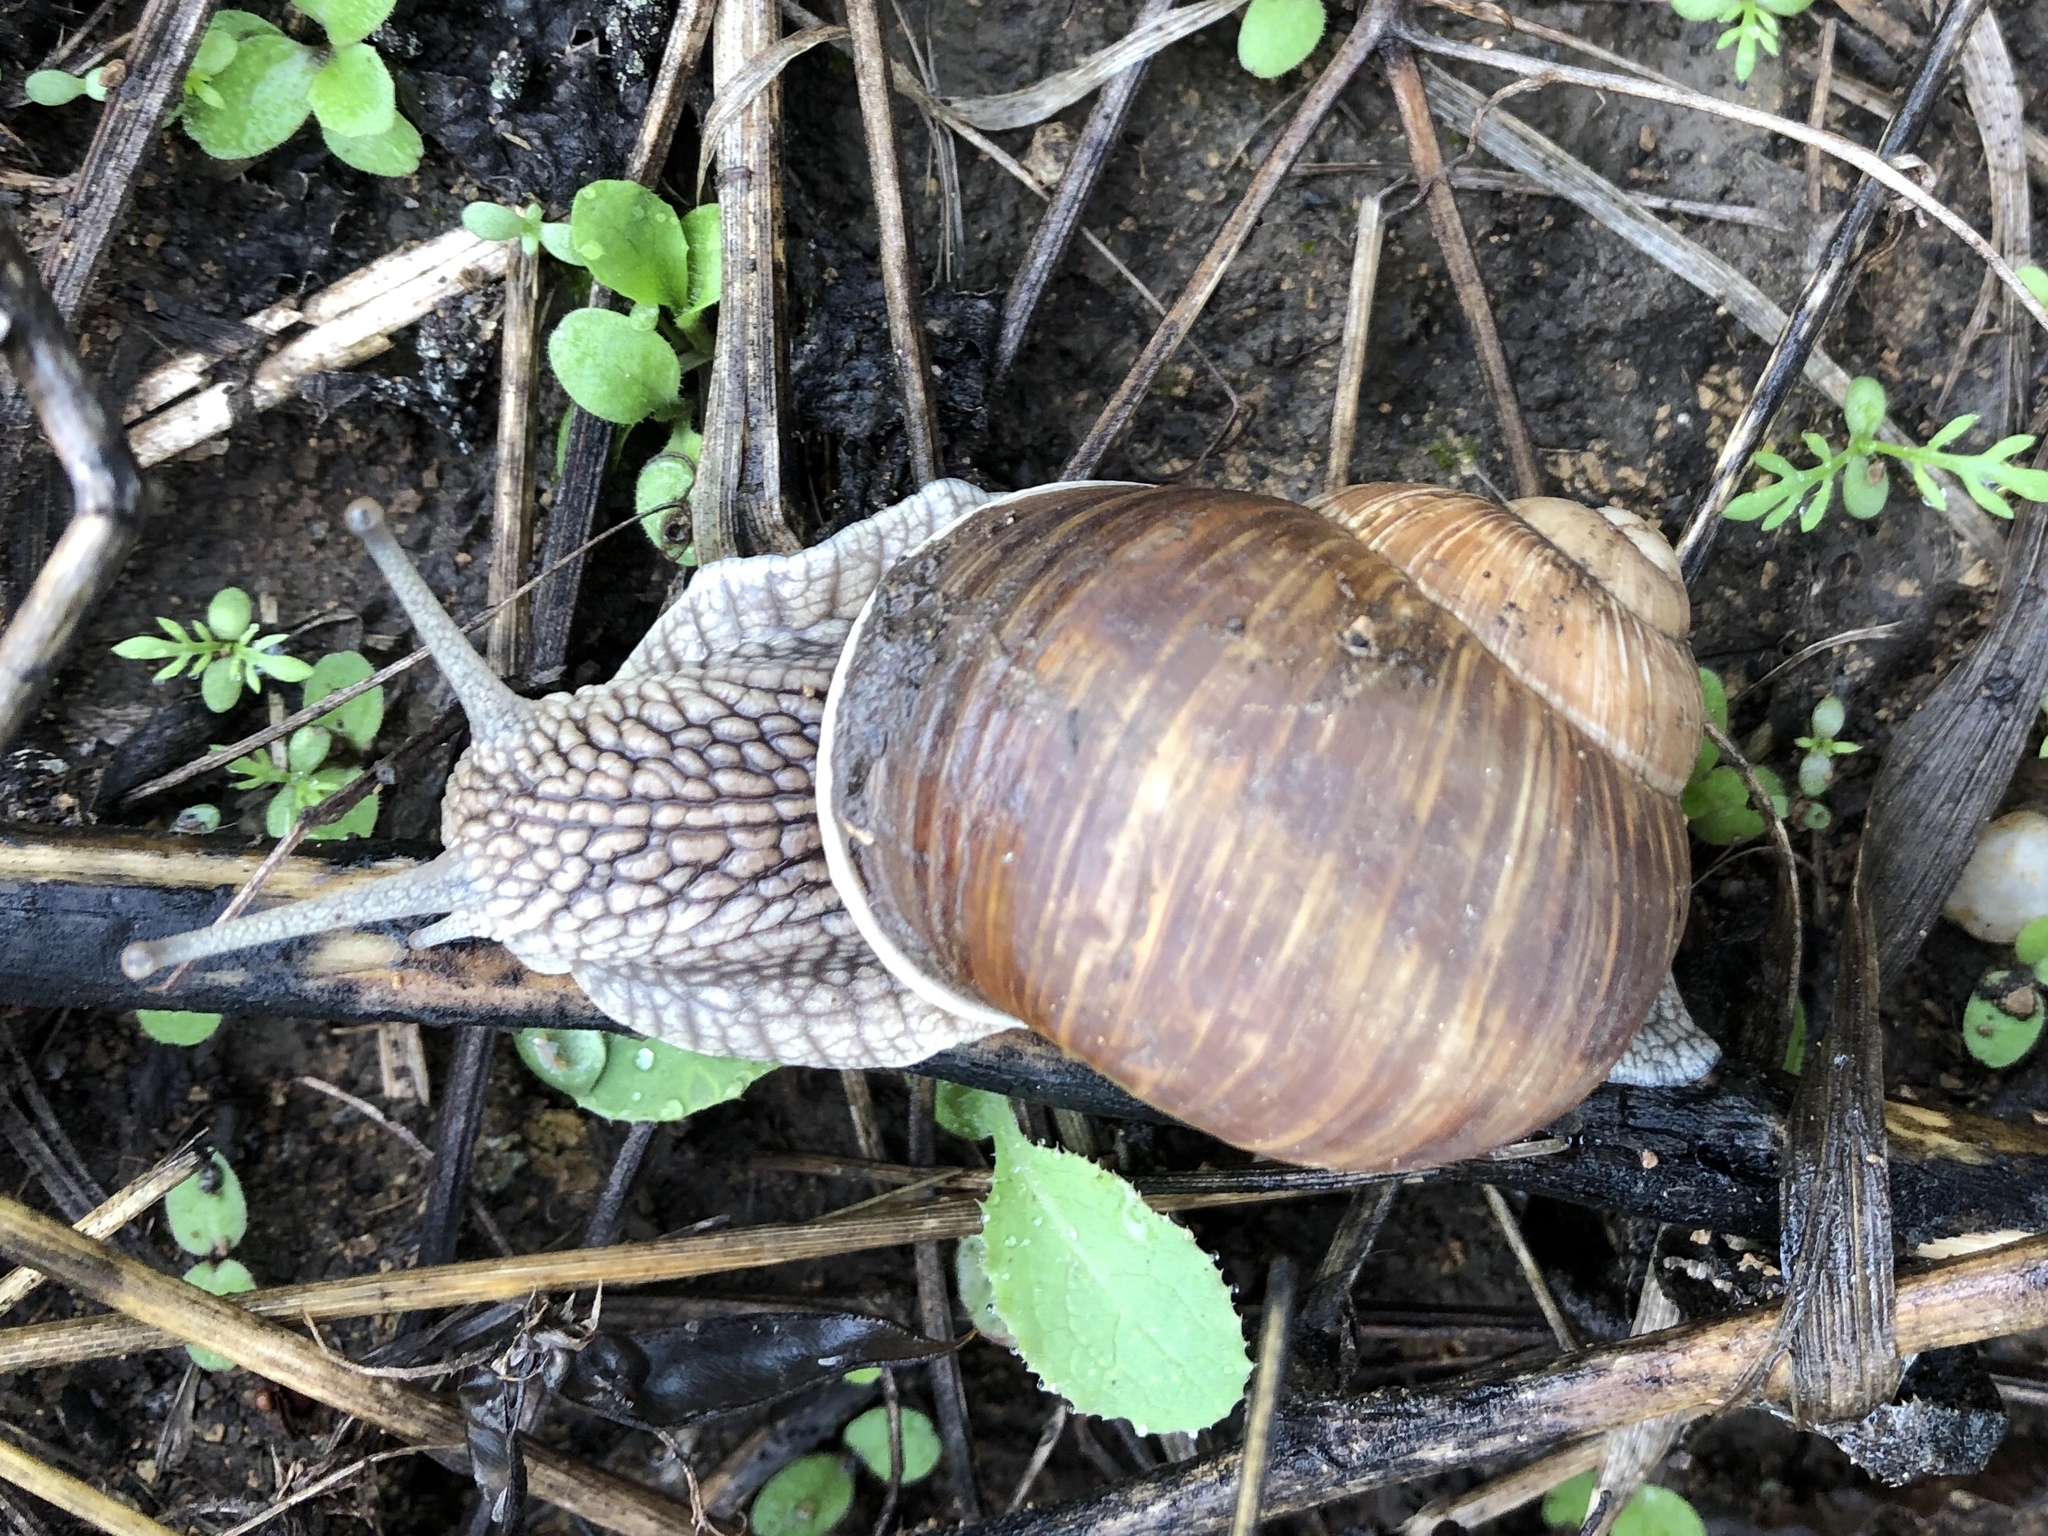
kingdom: Animalia
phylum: Mollusca
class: Gastropoda
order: Stylommatophora
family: Helicidae
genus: Helix
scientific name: Helix pomatia
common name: Roman snail
